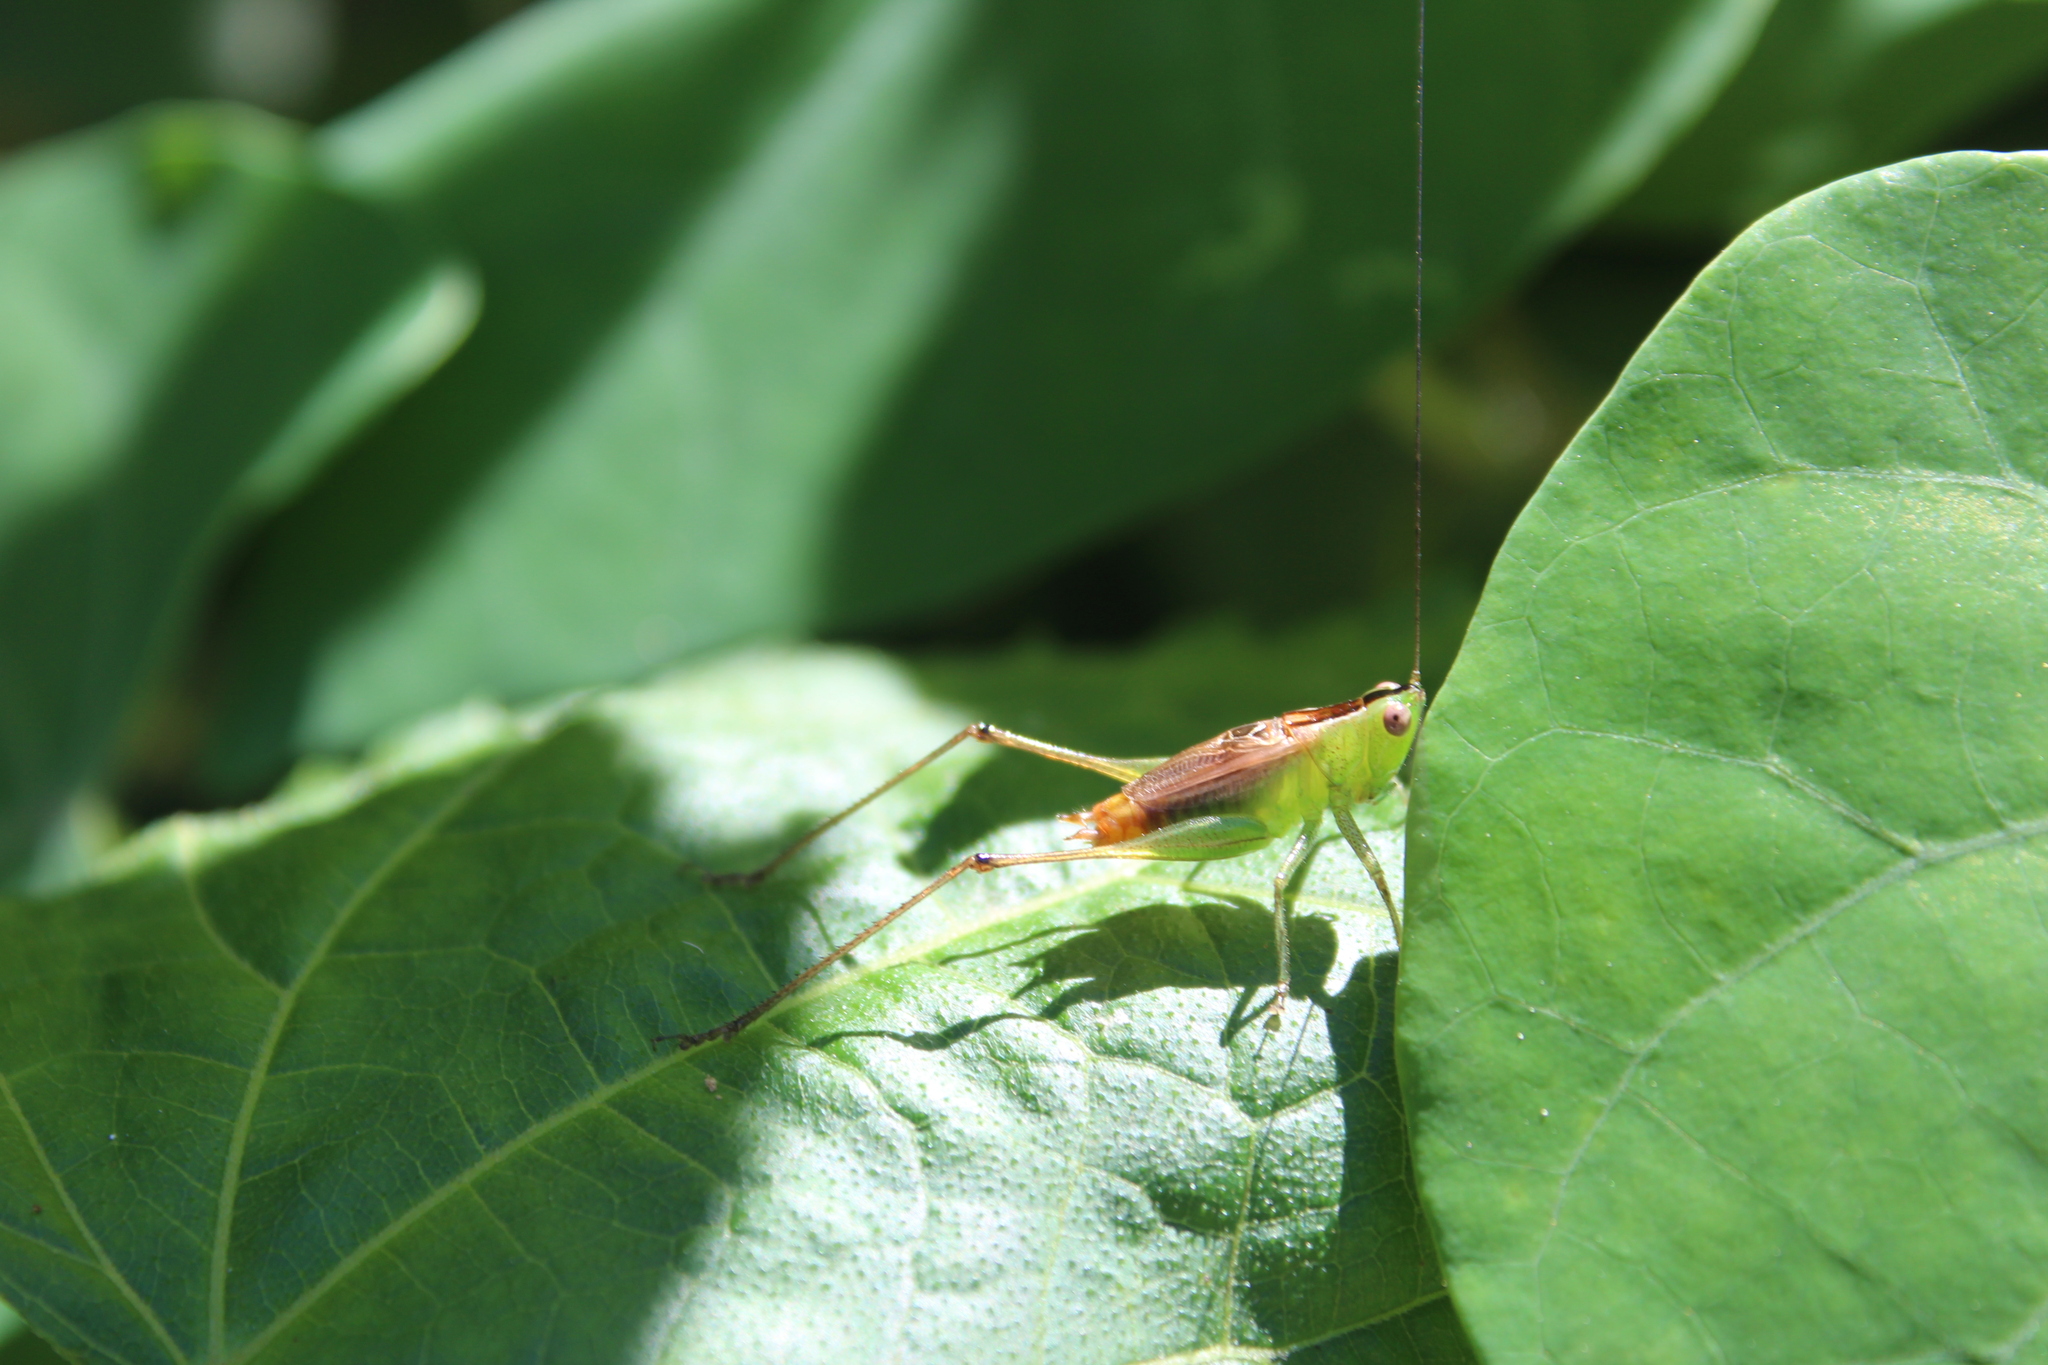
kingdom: Animalia
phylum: Arthropoda
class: Insecta
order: Orthoptera
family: Tettigoniidae
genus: Conocephalus
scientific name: Conocephalus ictus
